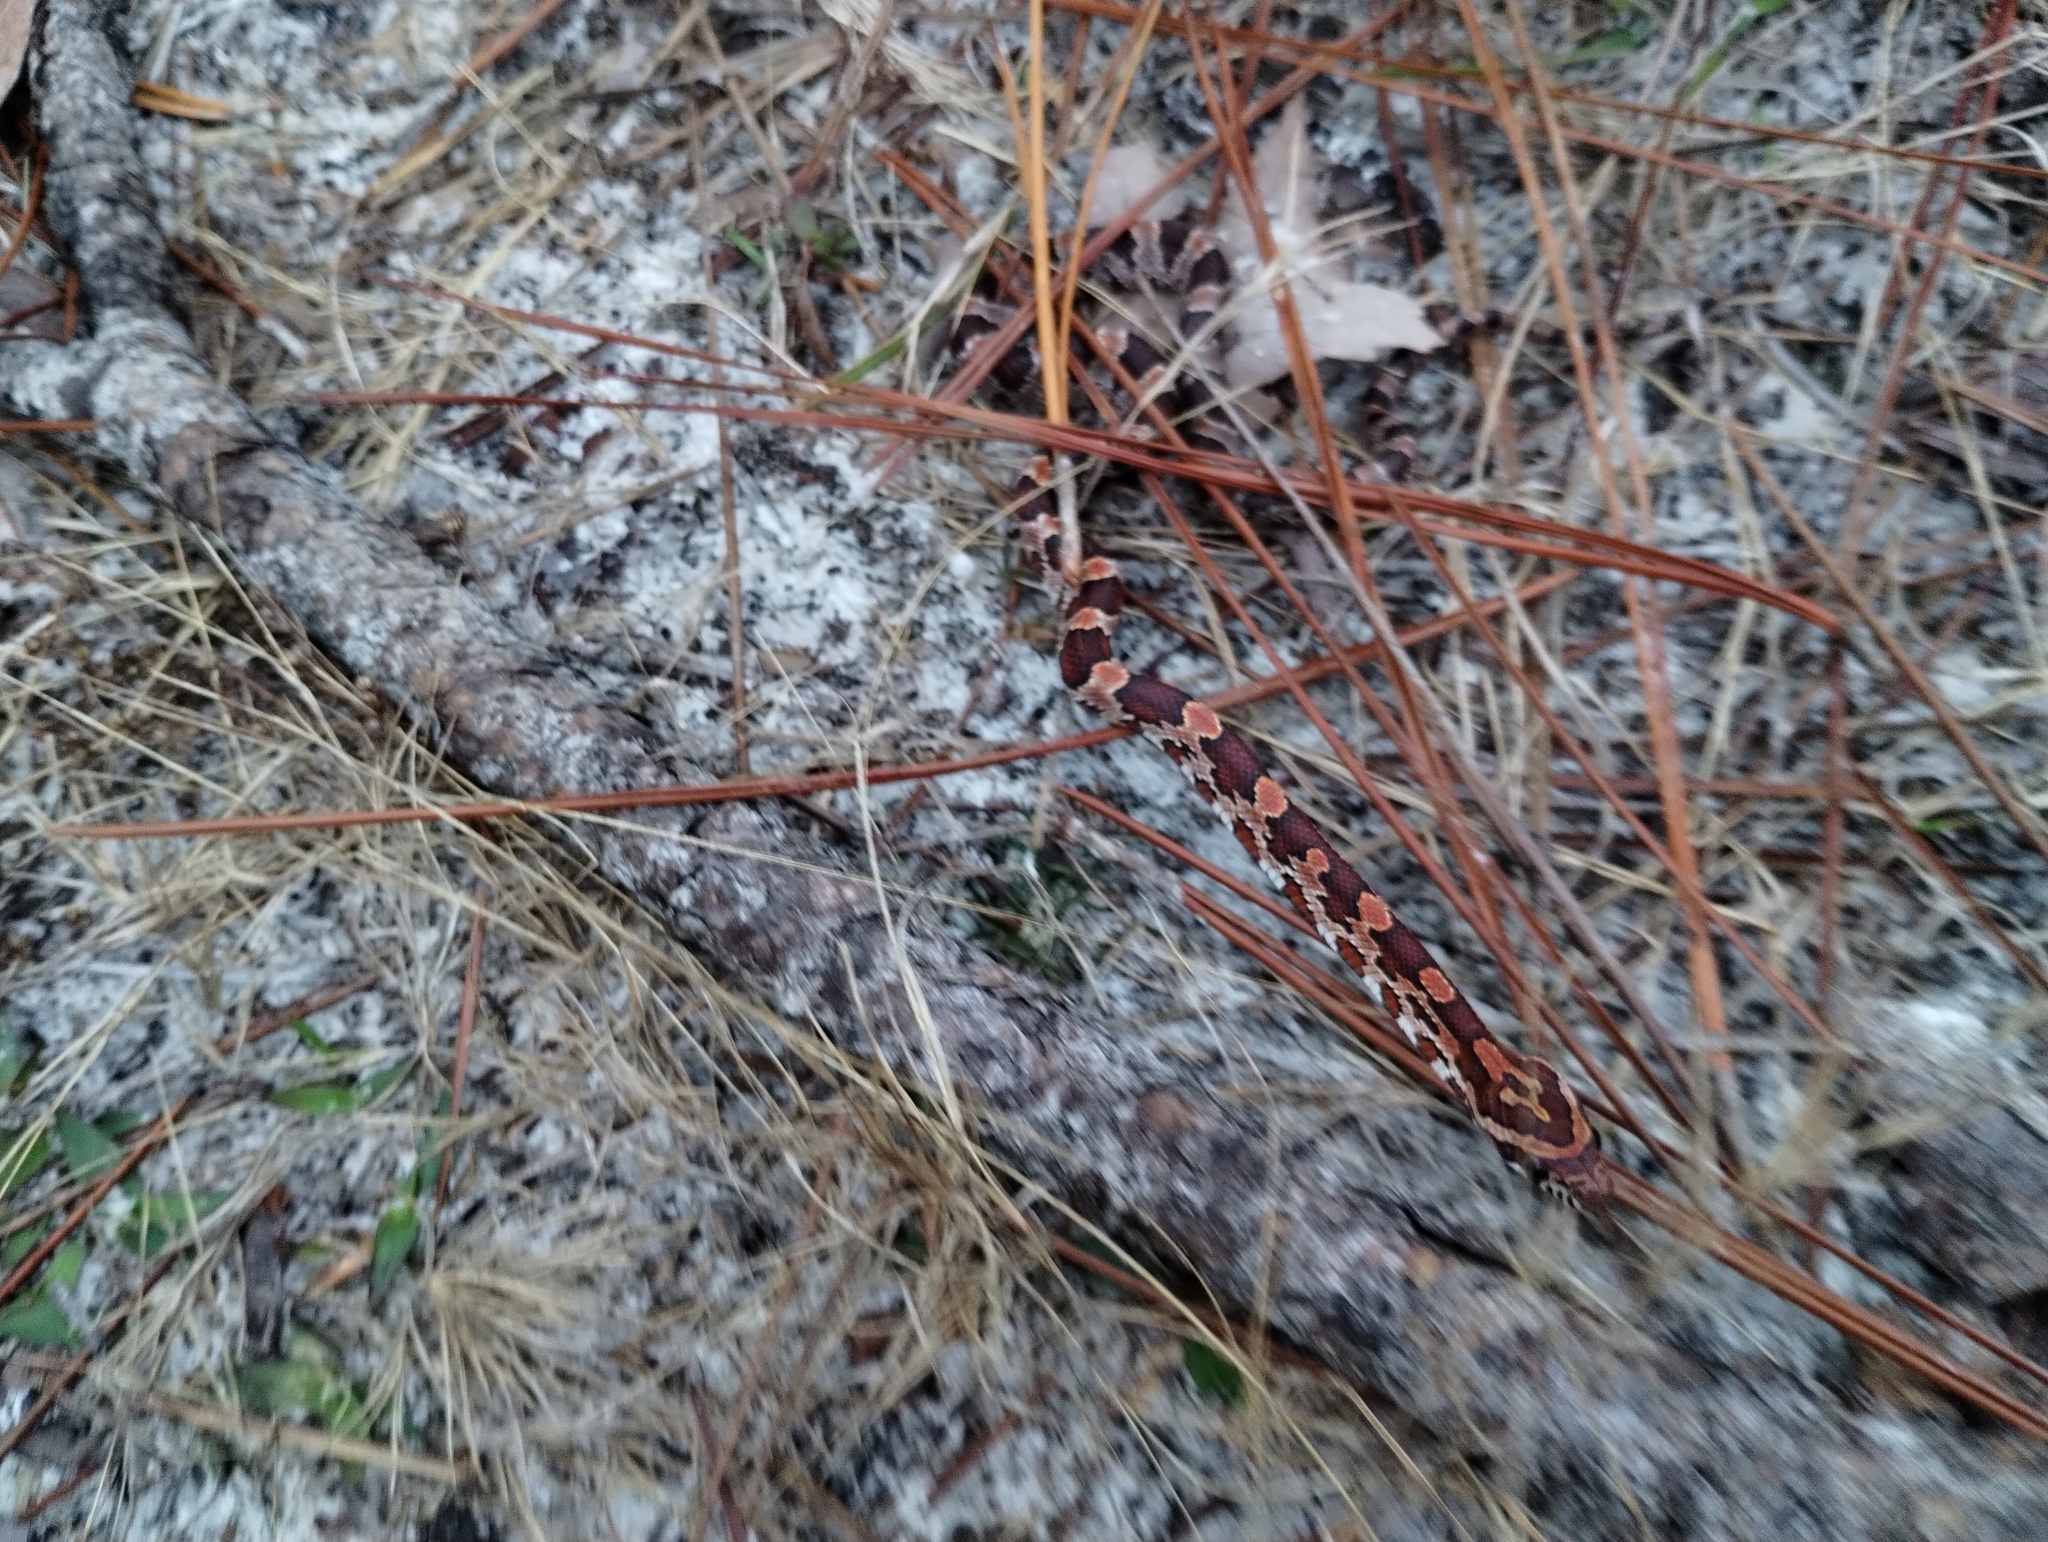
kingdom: Animalia
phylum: Chordata
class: Squamata
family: Colubridae
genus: Pantherophis
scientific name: Pantherophis guttatus
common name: Red cornsnake
